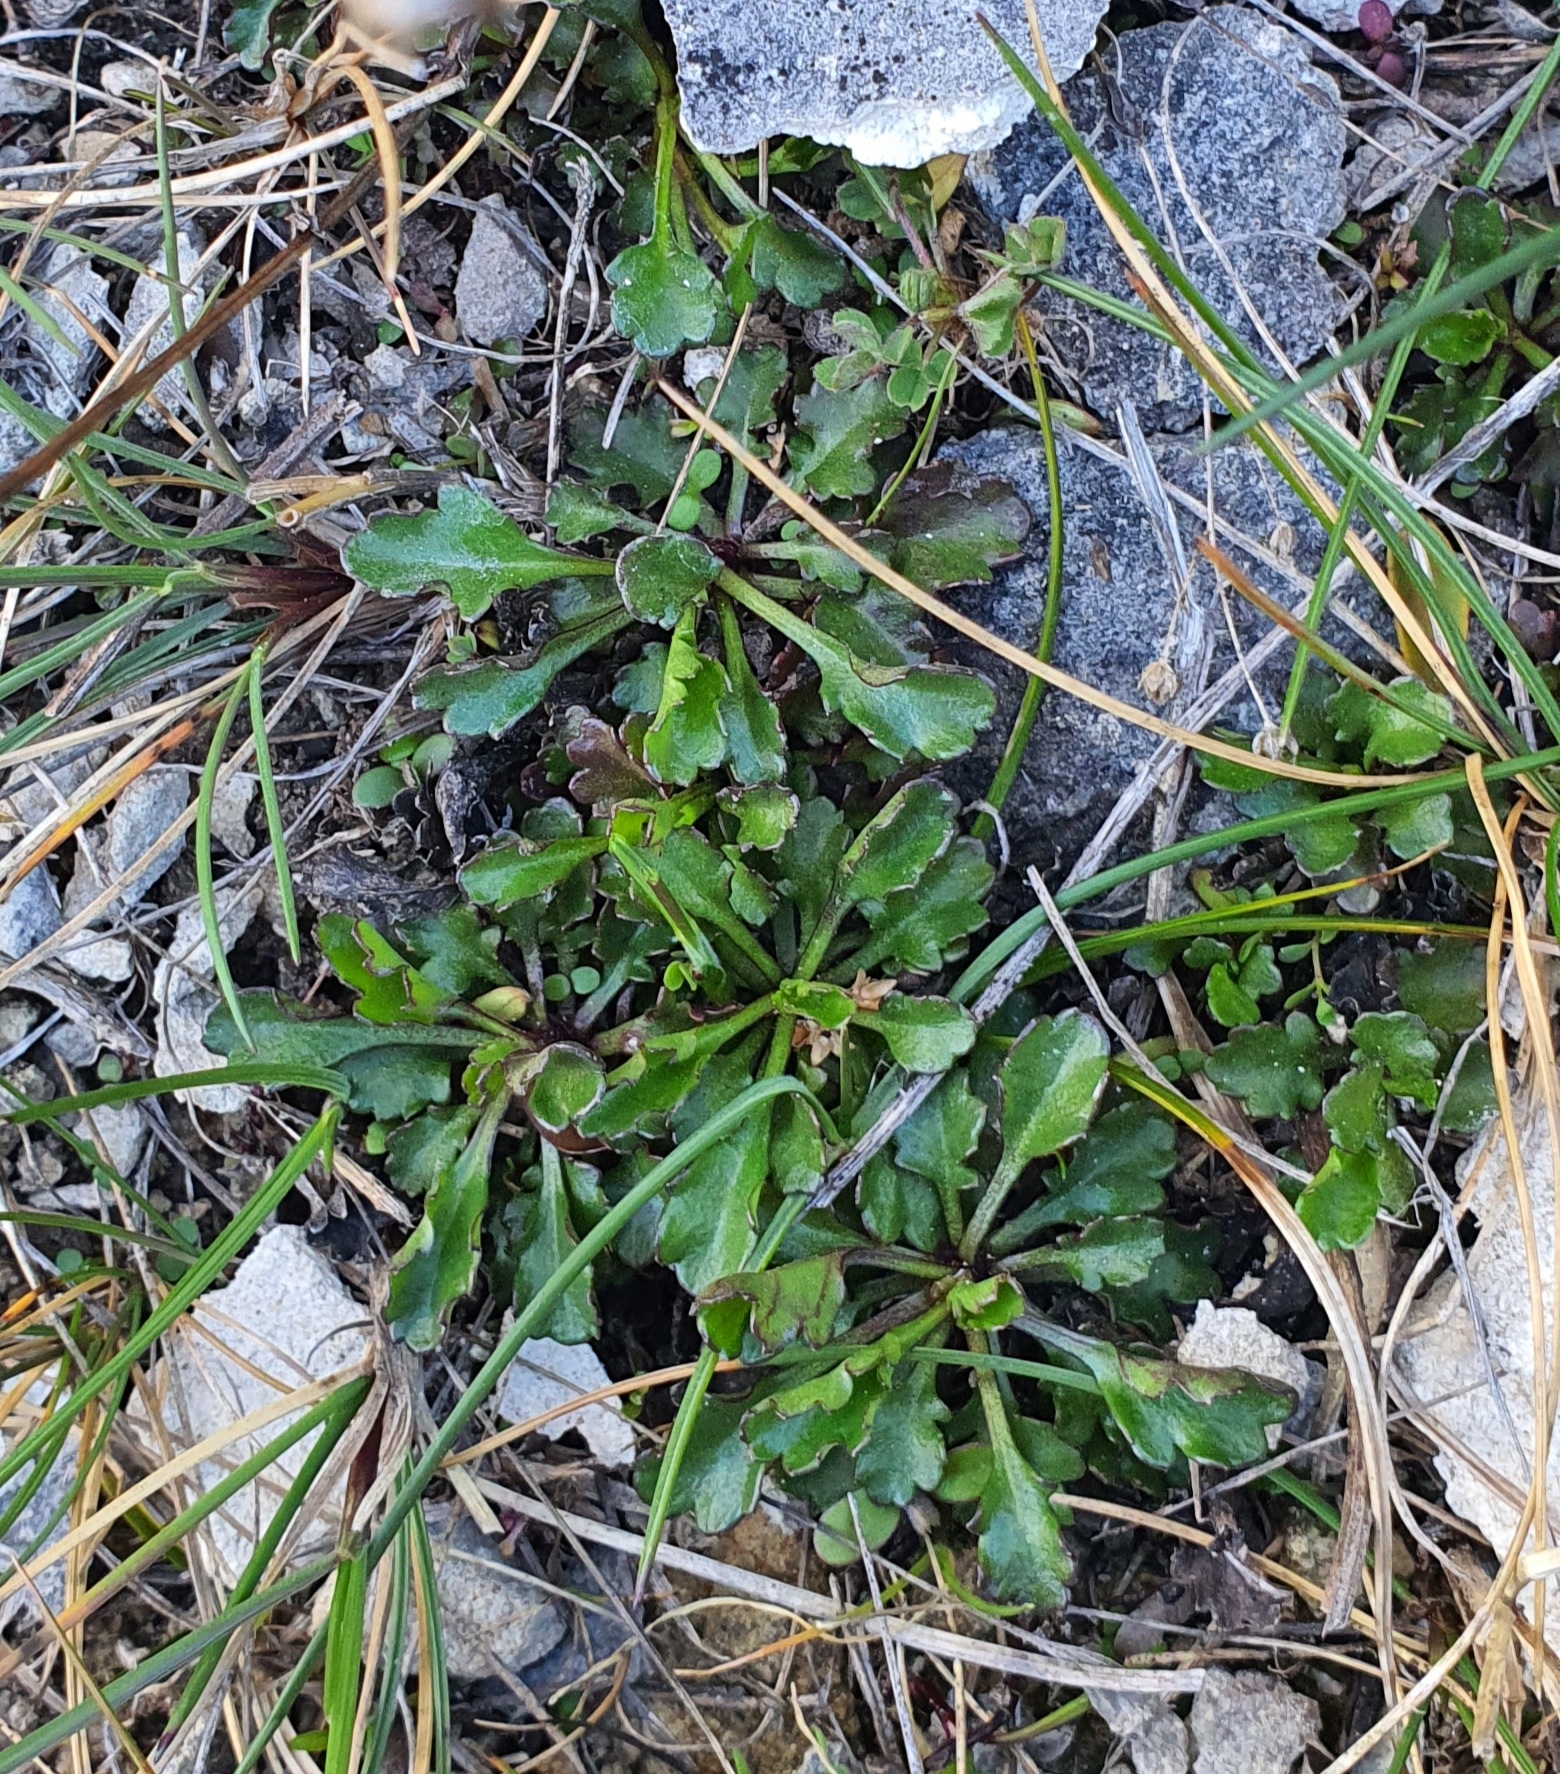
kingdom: Plantae
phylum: Tracheophyta
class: Magnoliopsida
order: Asterales
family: Asteraceae
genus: Leucanthemum
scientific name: Leucanthemum vulgare
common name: Oxeye daisy
